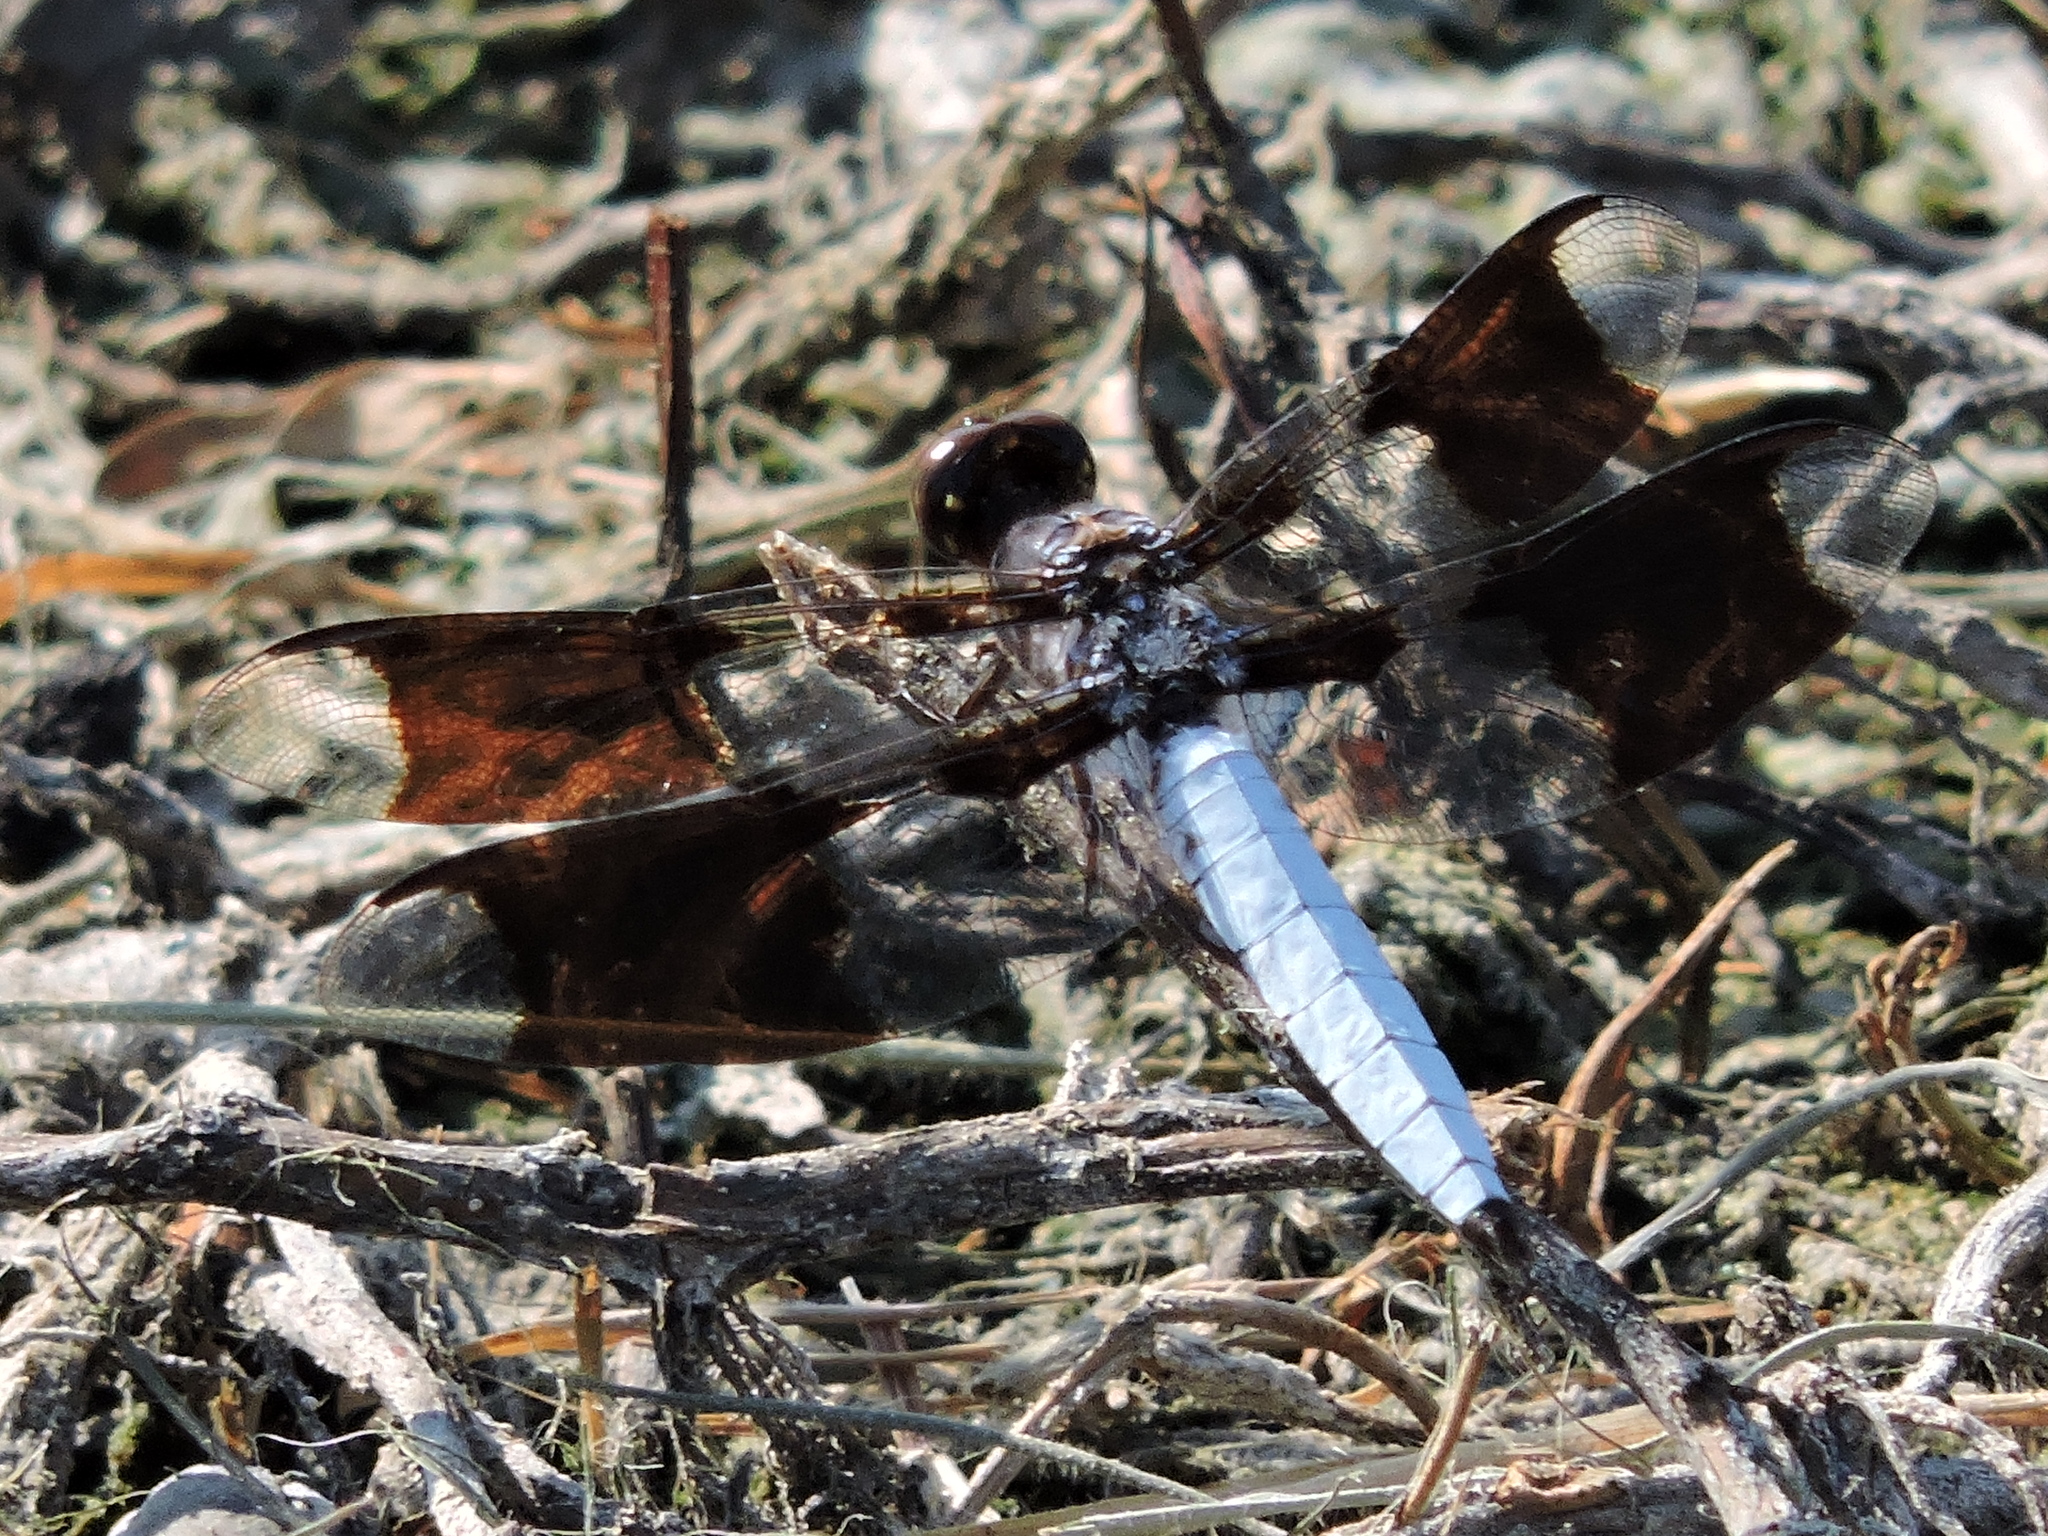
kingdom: Animalia
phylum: Arthropoda
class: Insecta
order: Odonata
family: Libellulidae
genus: Plathemis
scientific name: Plathemis lydia
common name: Common whitetail
